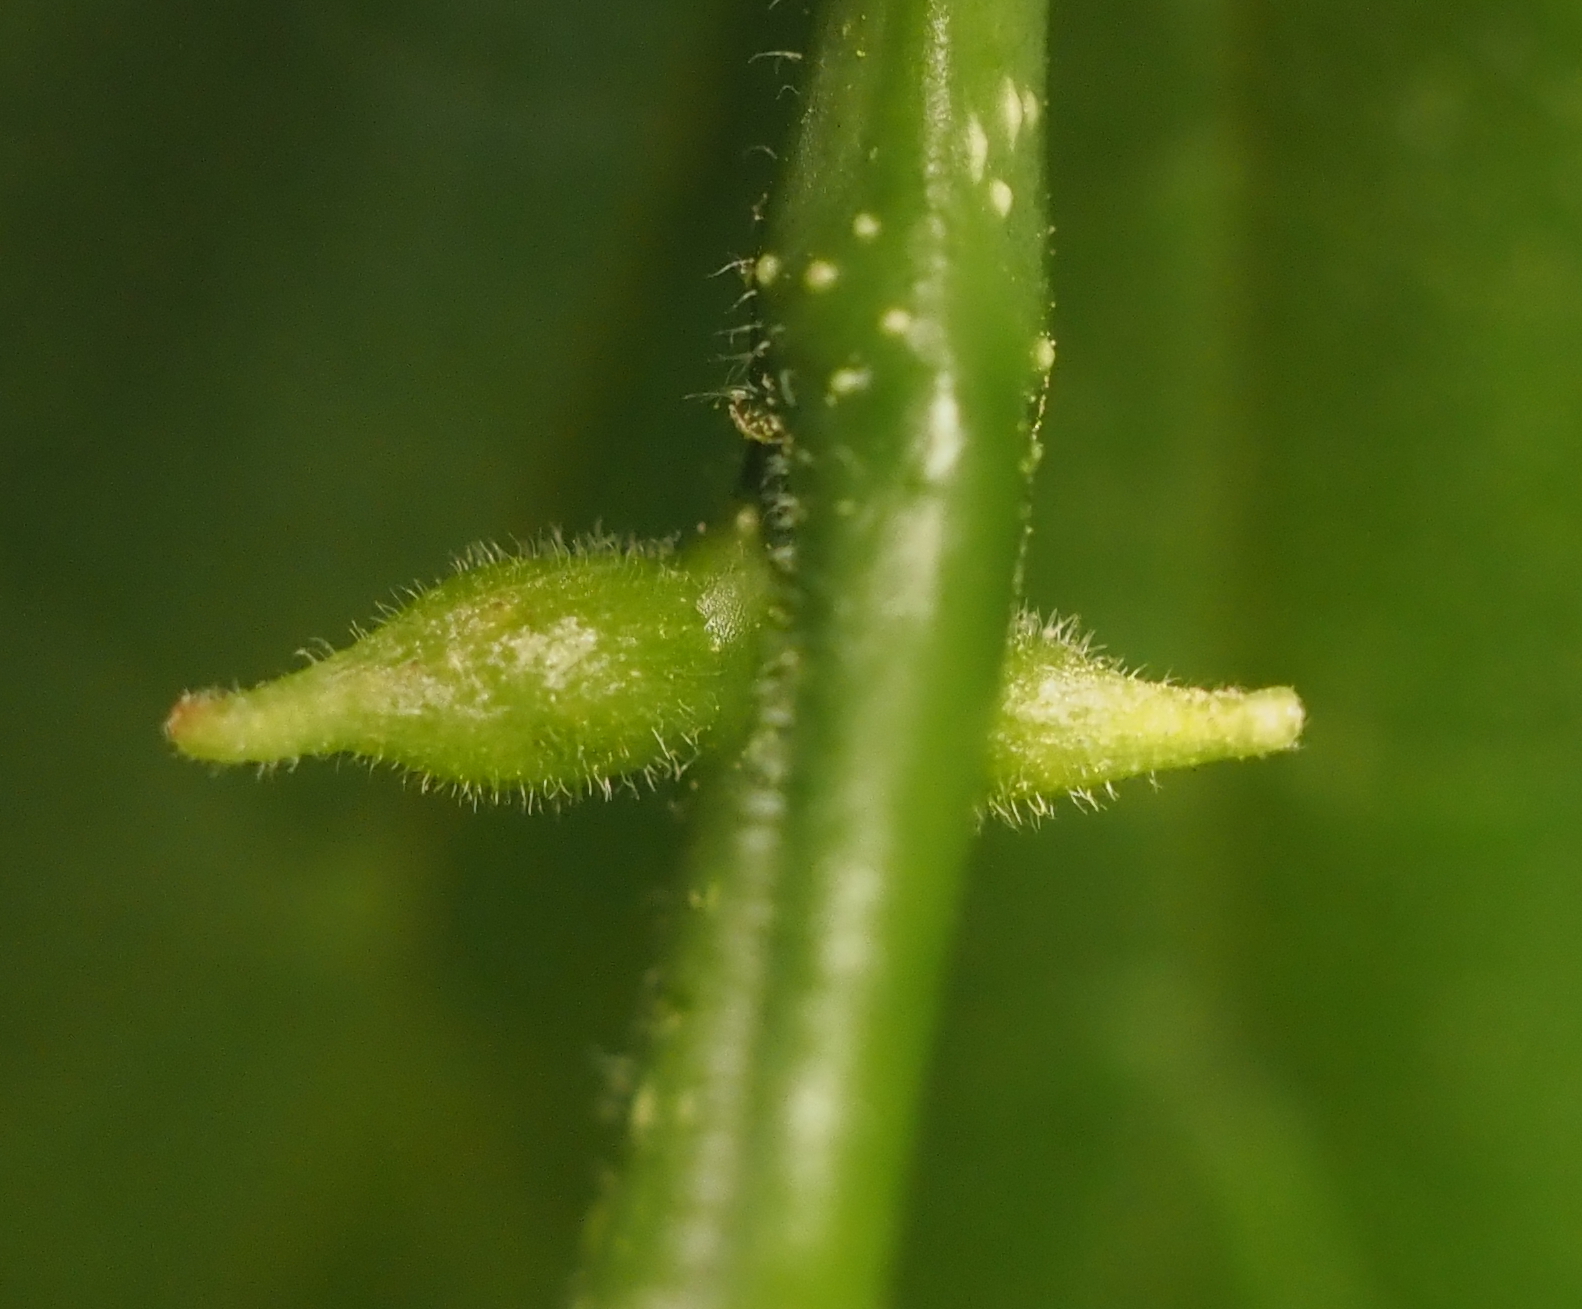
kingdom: Animalia
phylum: Arthropoda
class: Insecta
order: Diptera
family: Cecidomyiidae
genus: Celticecis
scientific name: Celticecis ramicola
